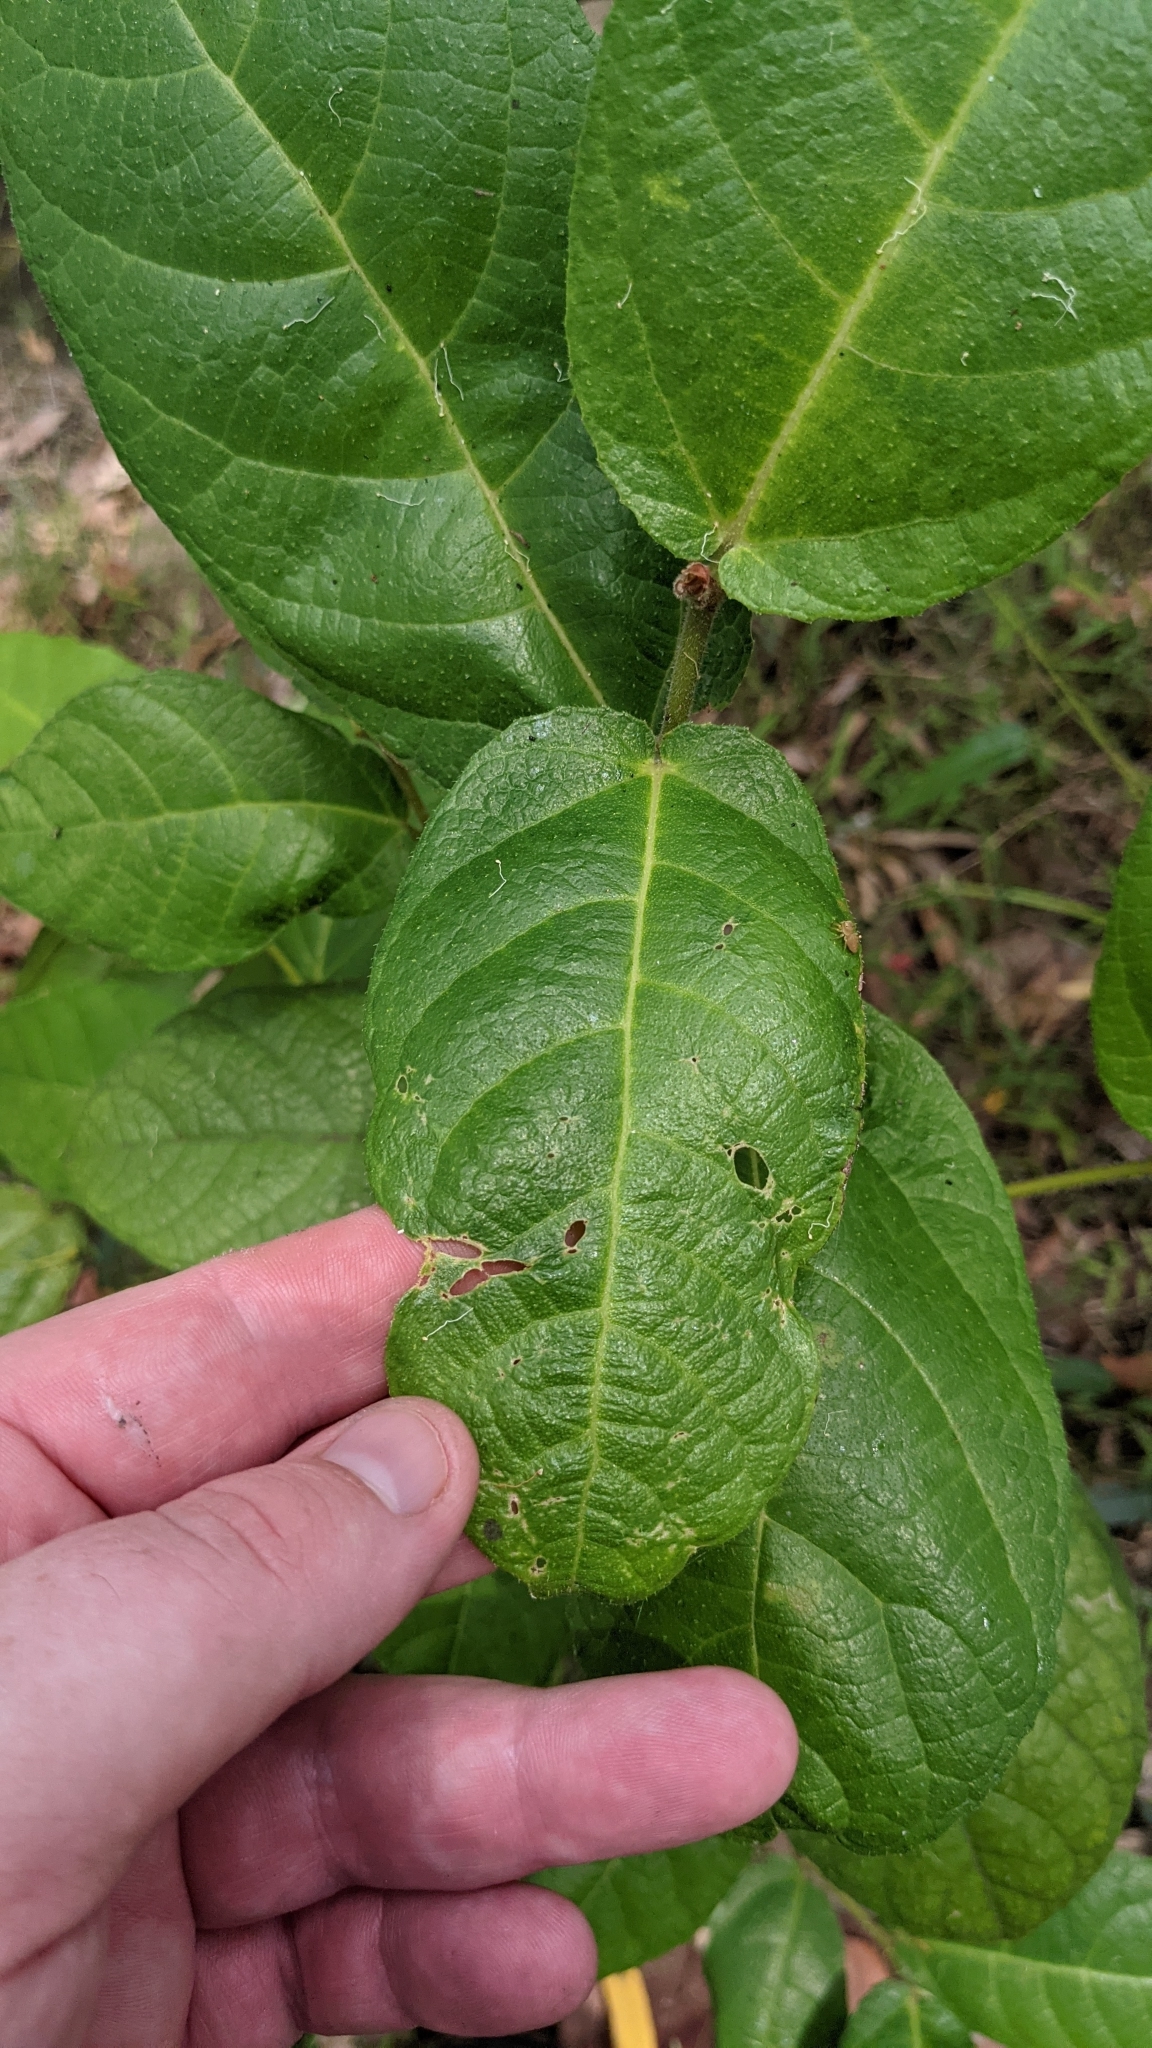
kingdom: Plantae
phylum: Tracheophyta
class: Magnoliopsida
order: Rosales
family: Moraceae
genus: Ficus
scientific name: Ficus coronata
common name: Creek sandpaper fig
